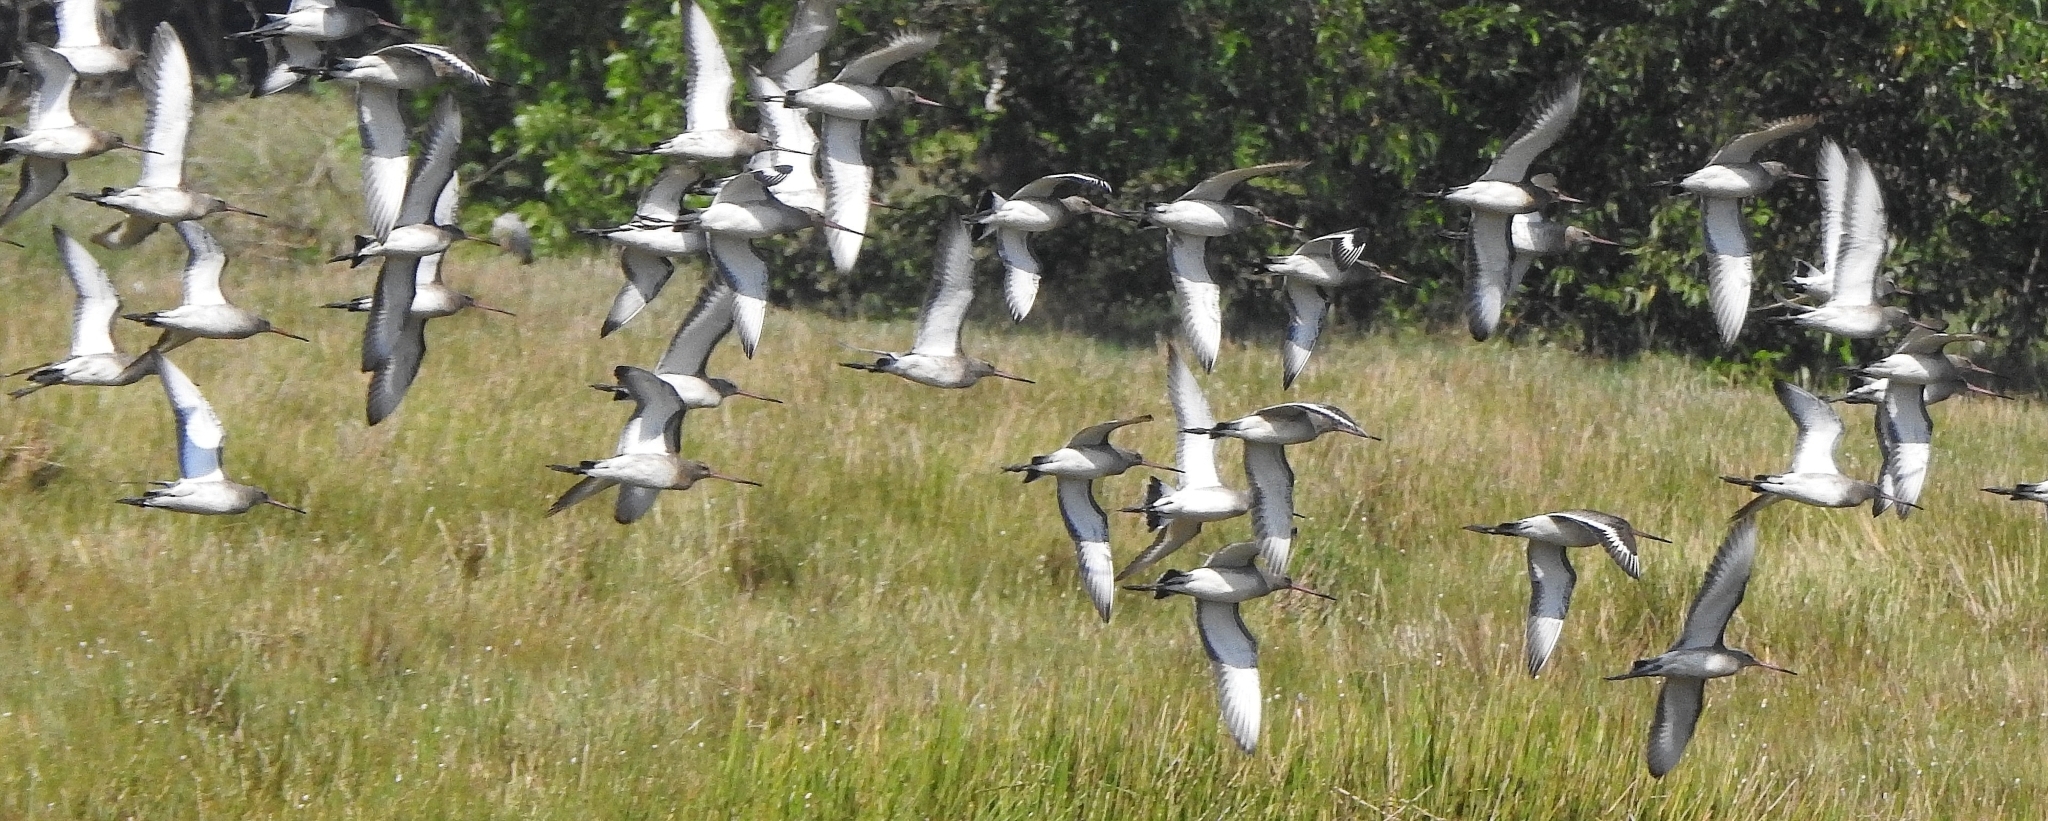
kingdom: Animalia
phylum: Chordata
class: Aves
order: Charadriiformes
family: Scolopacidae
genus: Limosa
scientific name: Limosa limosa
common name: Black-tailed godwit
